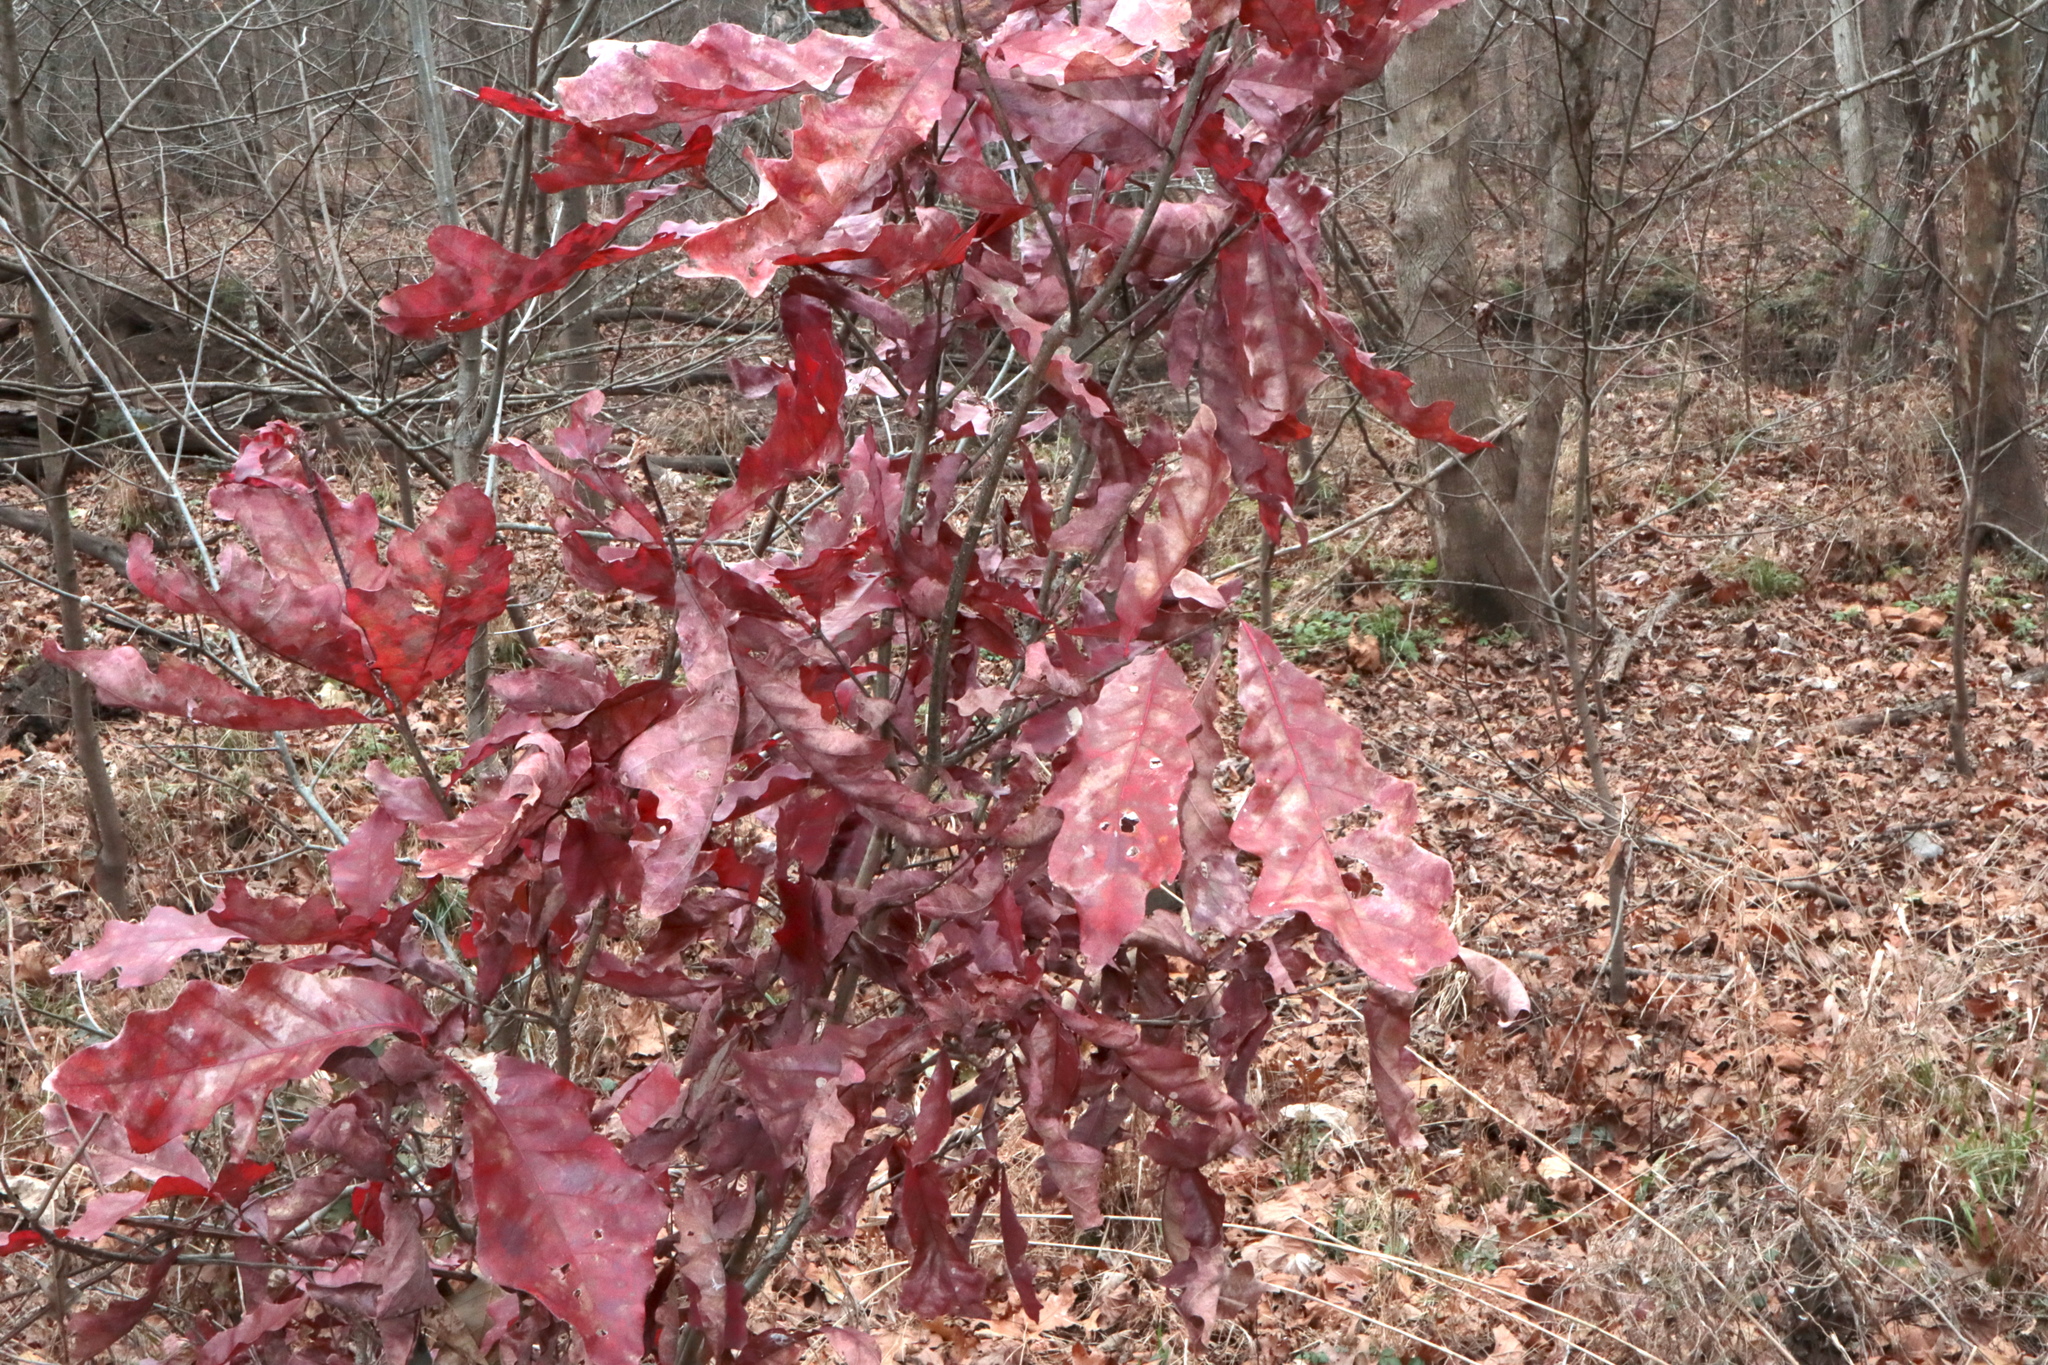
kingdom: Plantae
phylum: Tracheophyta
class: Magnoliopsida
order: Fagales
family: Fagaceae
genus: Quercus
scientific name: Quercus alba
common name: White oak
